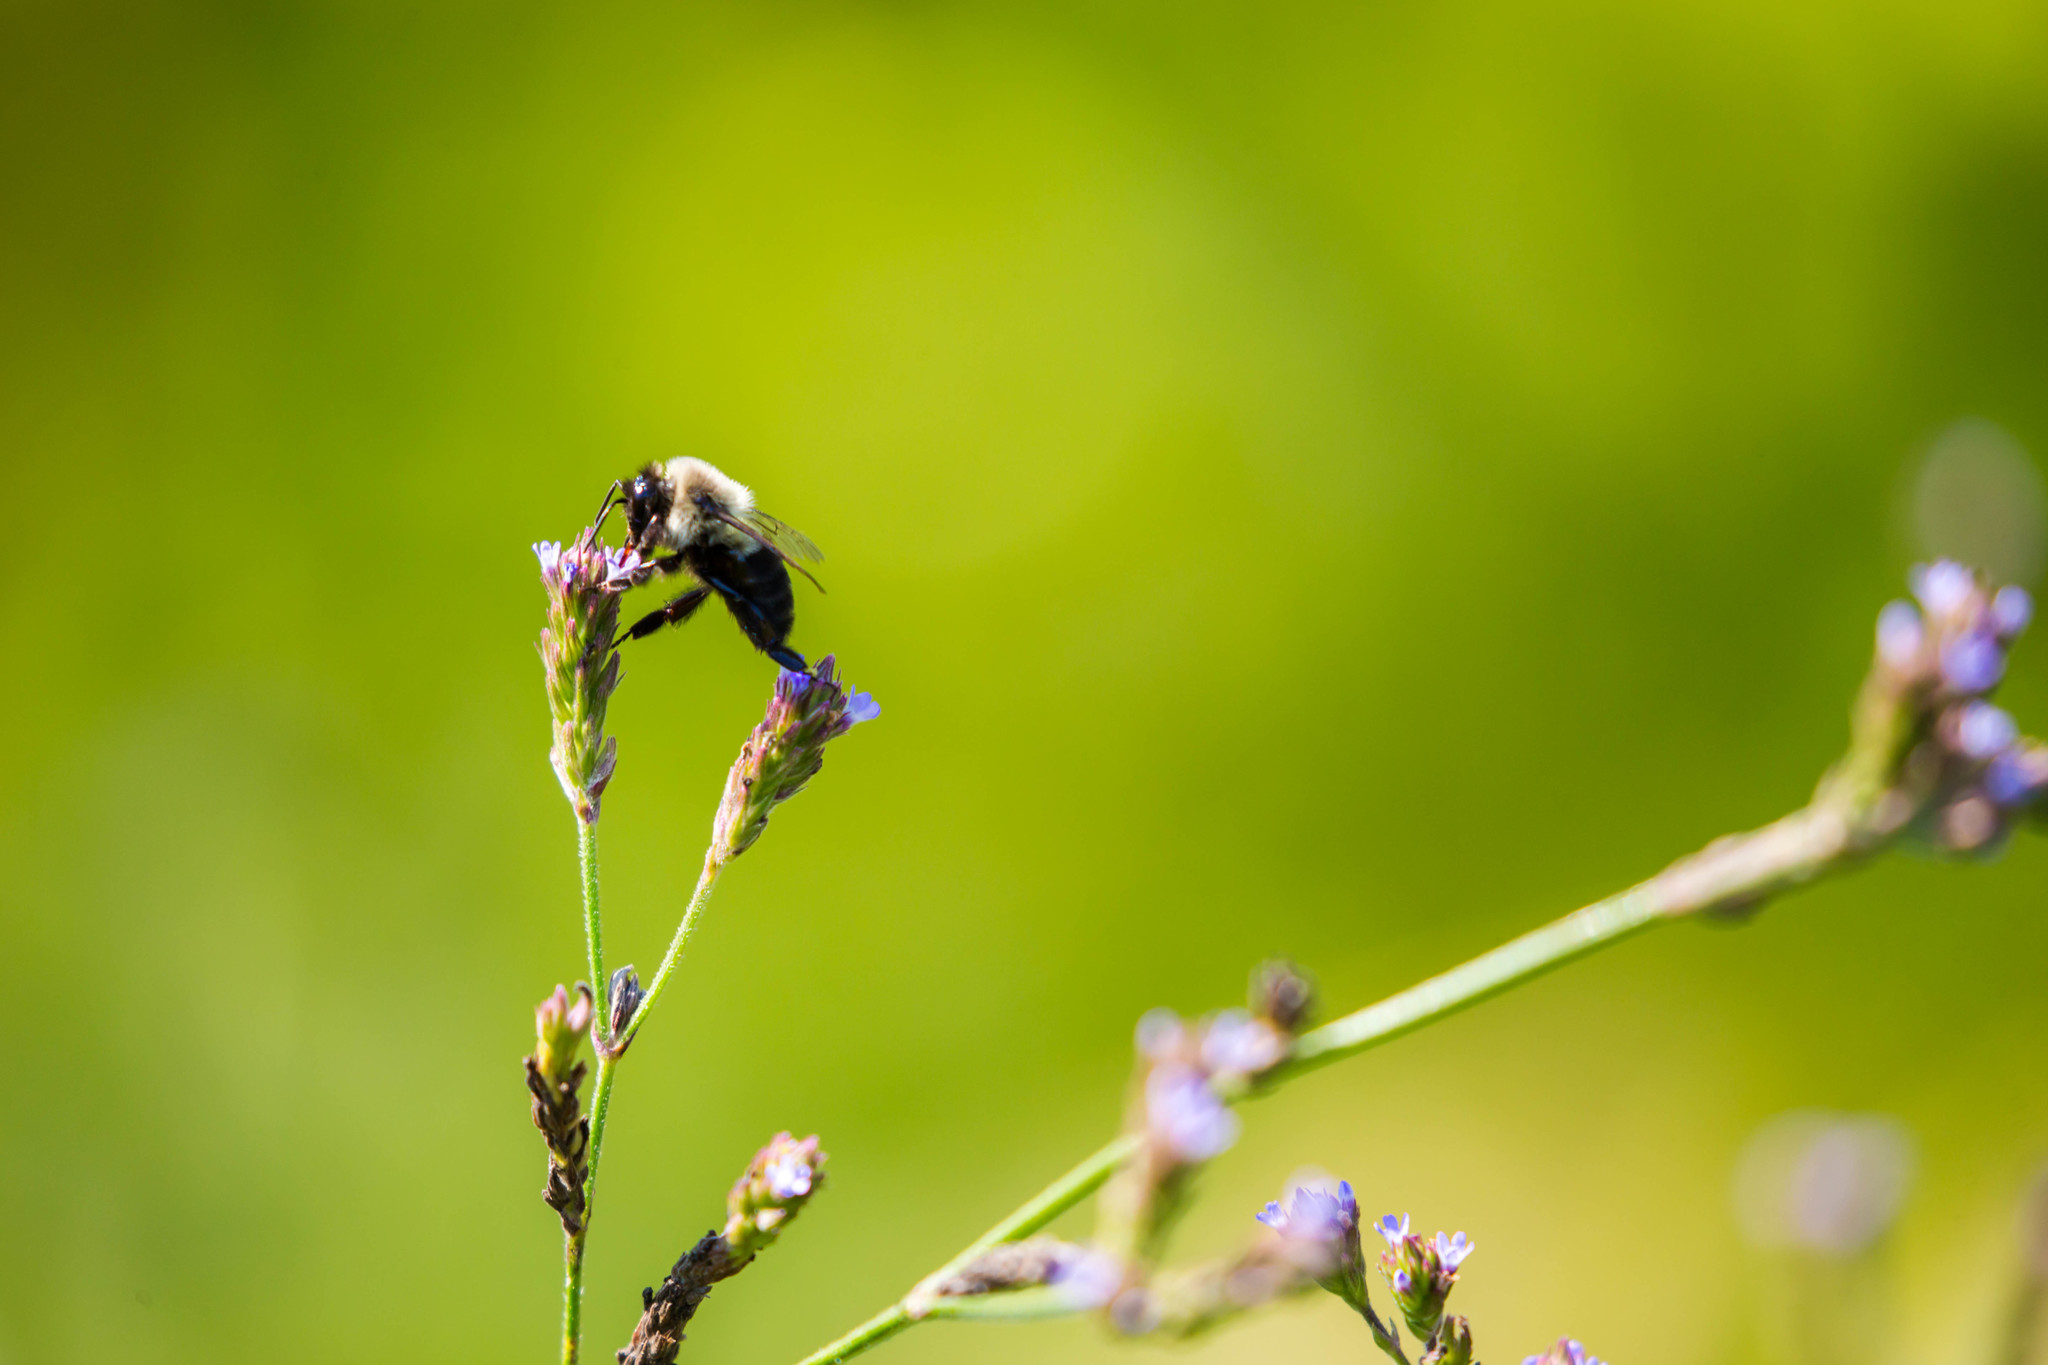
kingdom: Animalia
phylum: Arthropoda
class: Insecta
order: Hymenoptera
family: Apidae
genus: Bombus
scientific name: Bombus impatiens
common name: Common eastern bumble bee
